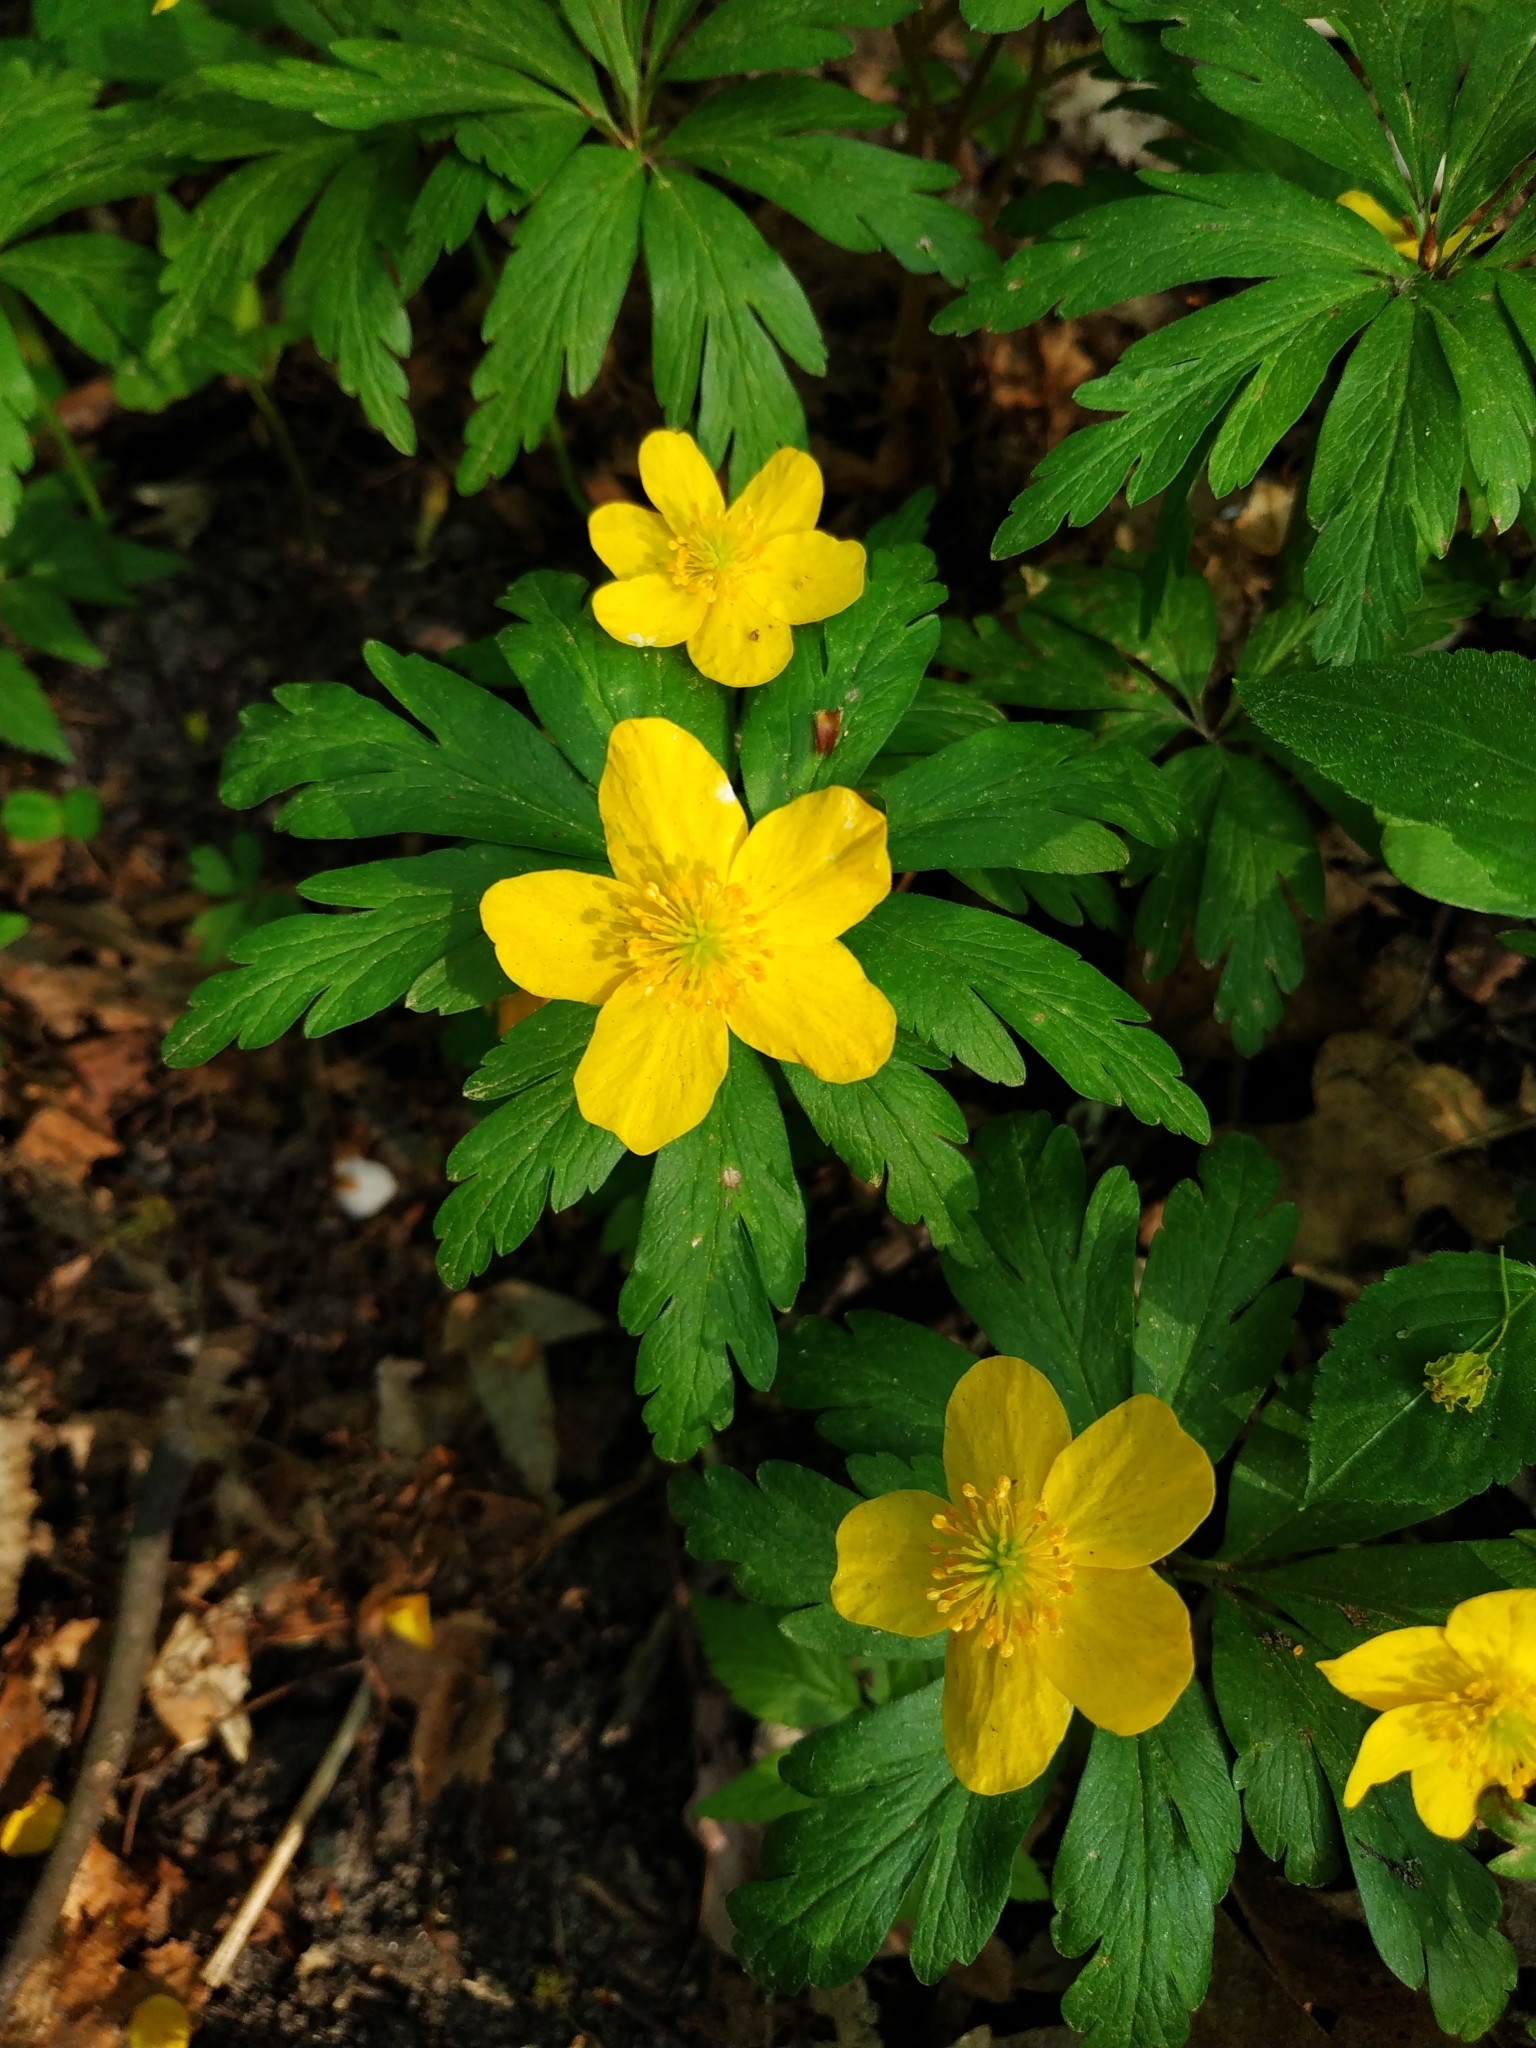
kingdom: Plantae
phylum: Tracheophyta
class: Magnoliopsida
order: Ranunculales
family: Ranunculaceae
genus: Anemone
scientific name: Anemone ranunculoides
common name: Yellow anemone
